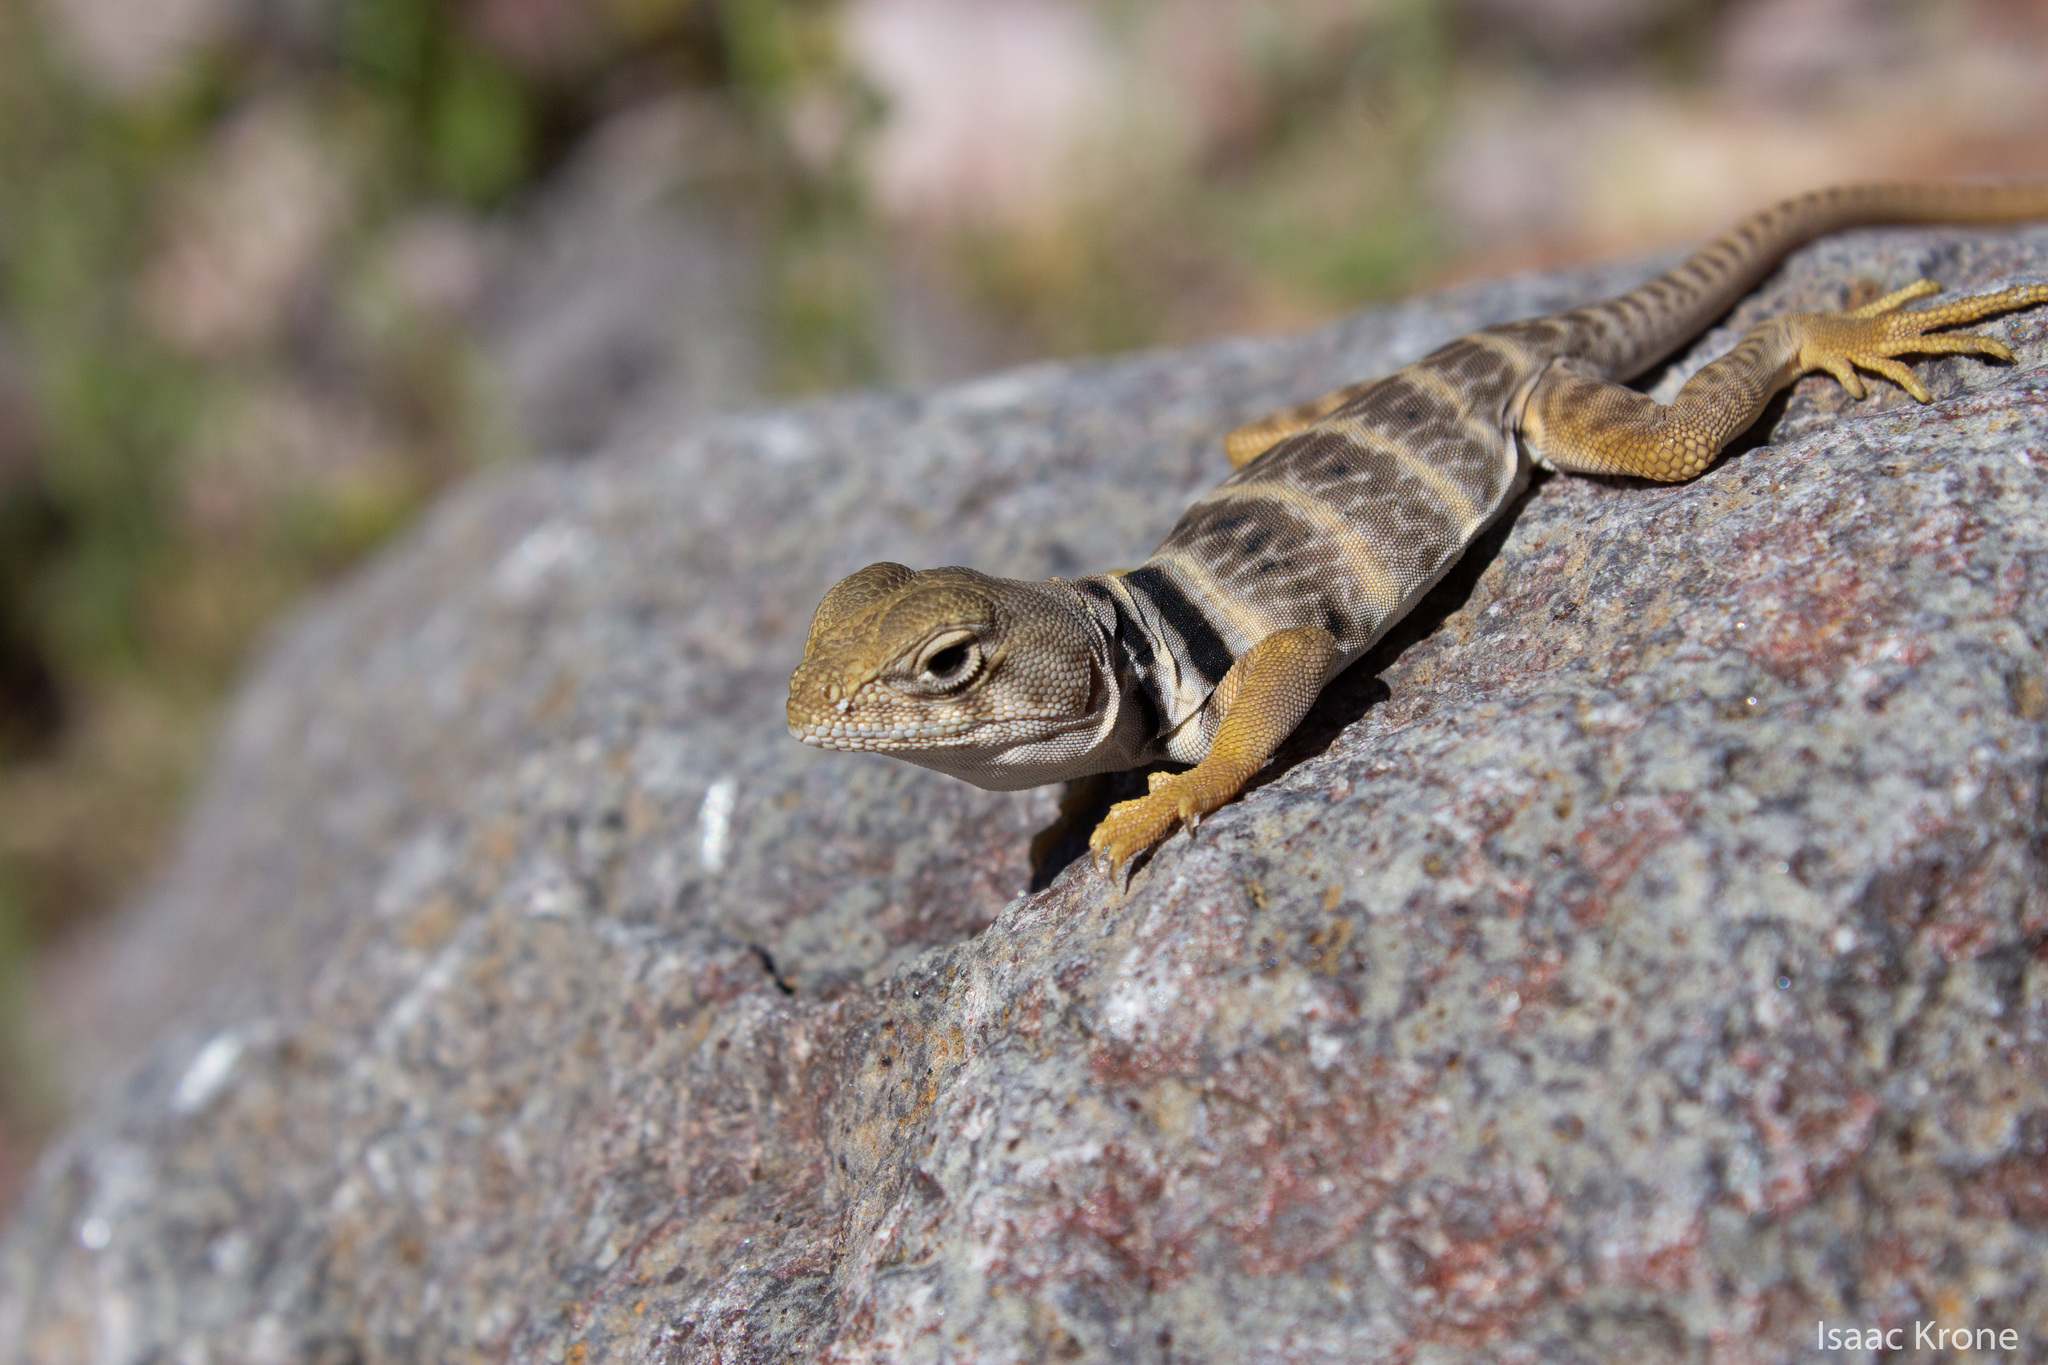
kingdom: Animalia
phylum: Chordata
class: Squamata
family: Crotaphytidae
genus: Crotaphytus
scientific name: Crotaphytus nebrius
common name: Sonoran collared lizard
